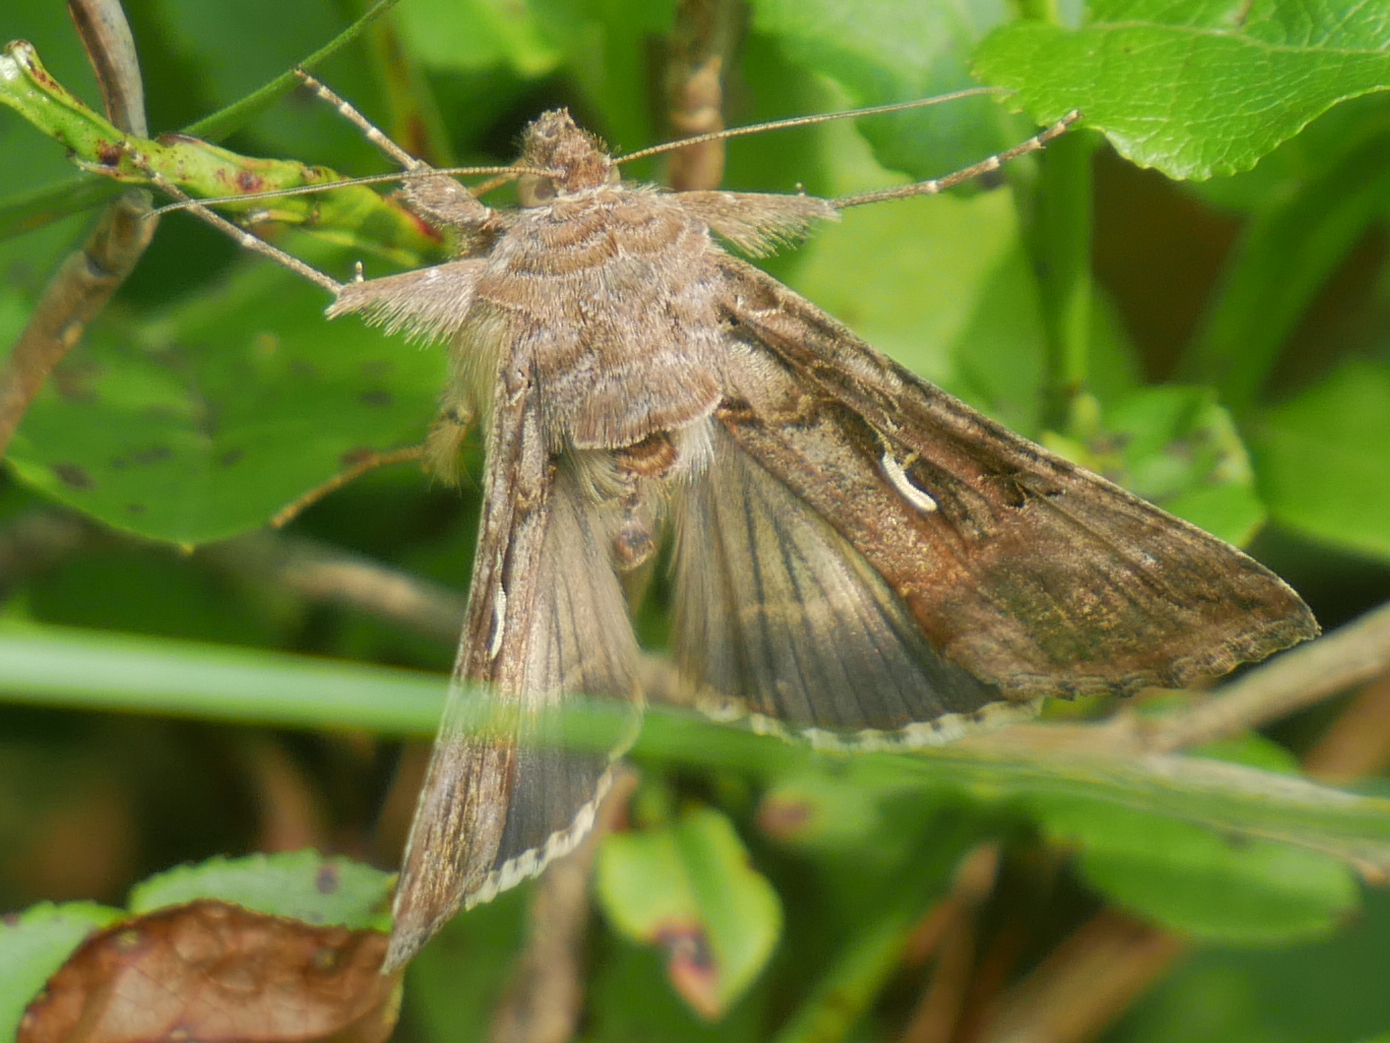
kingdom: Animalia
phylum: Arthropoda
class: Insecta
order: Lepidoptera
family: Noctuidae
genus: Autographa
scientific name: Autographa gamma
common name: Silver y
